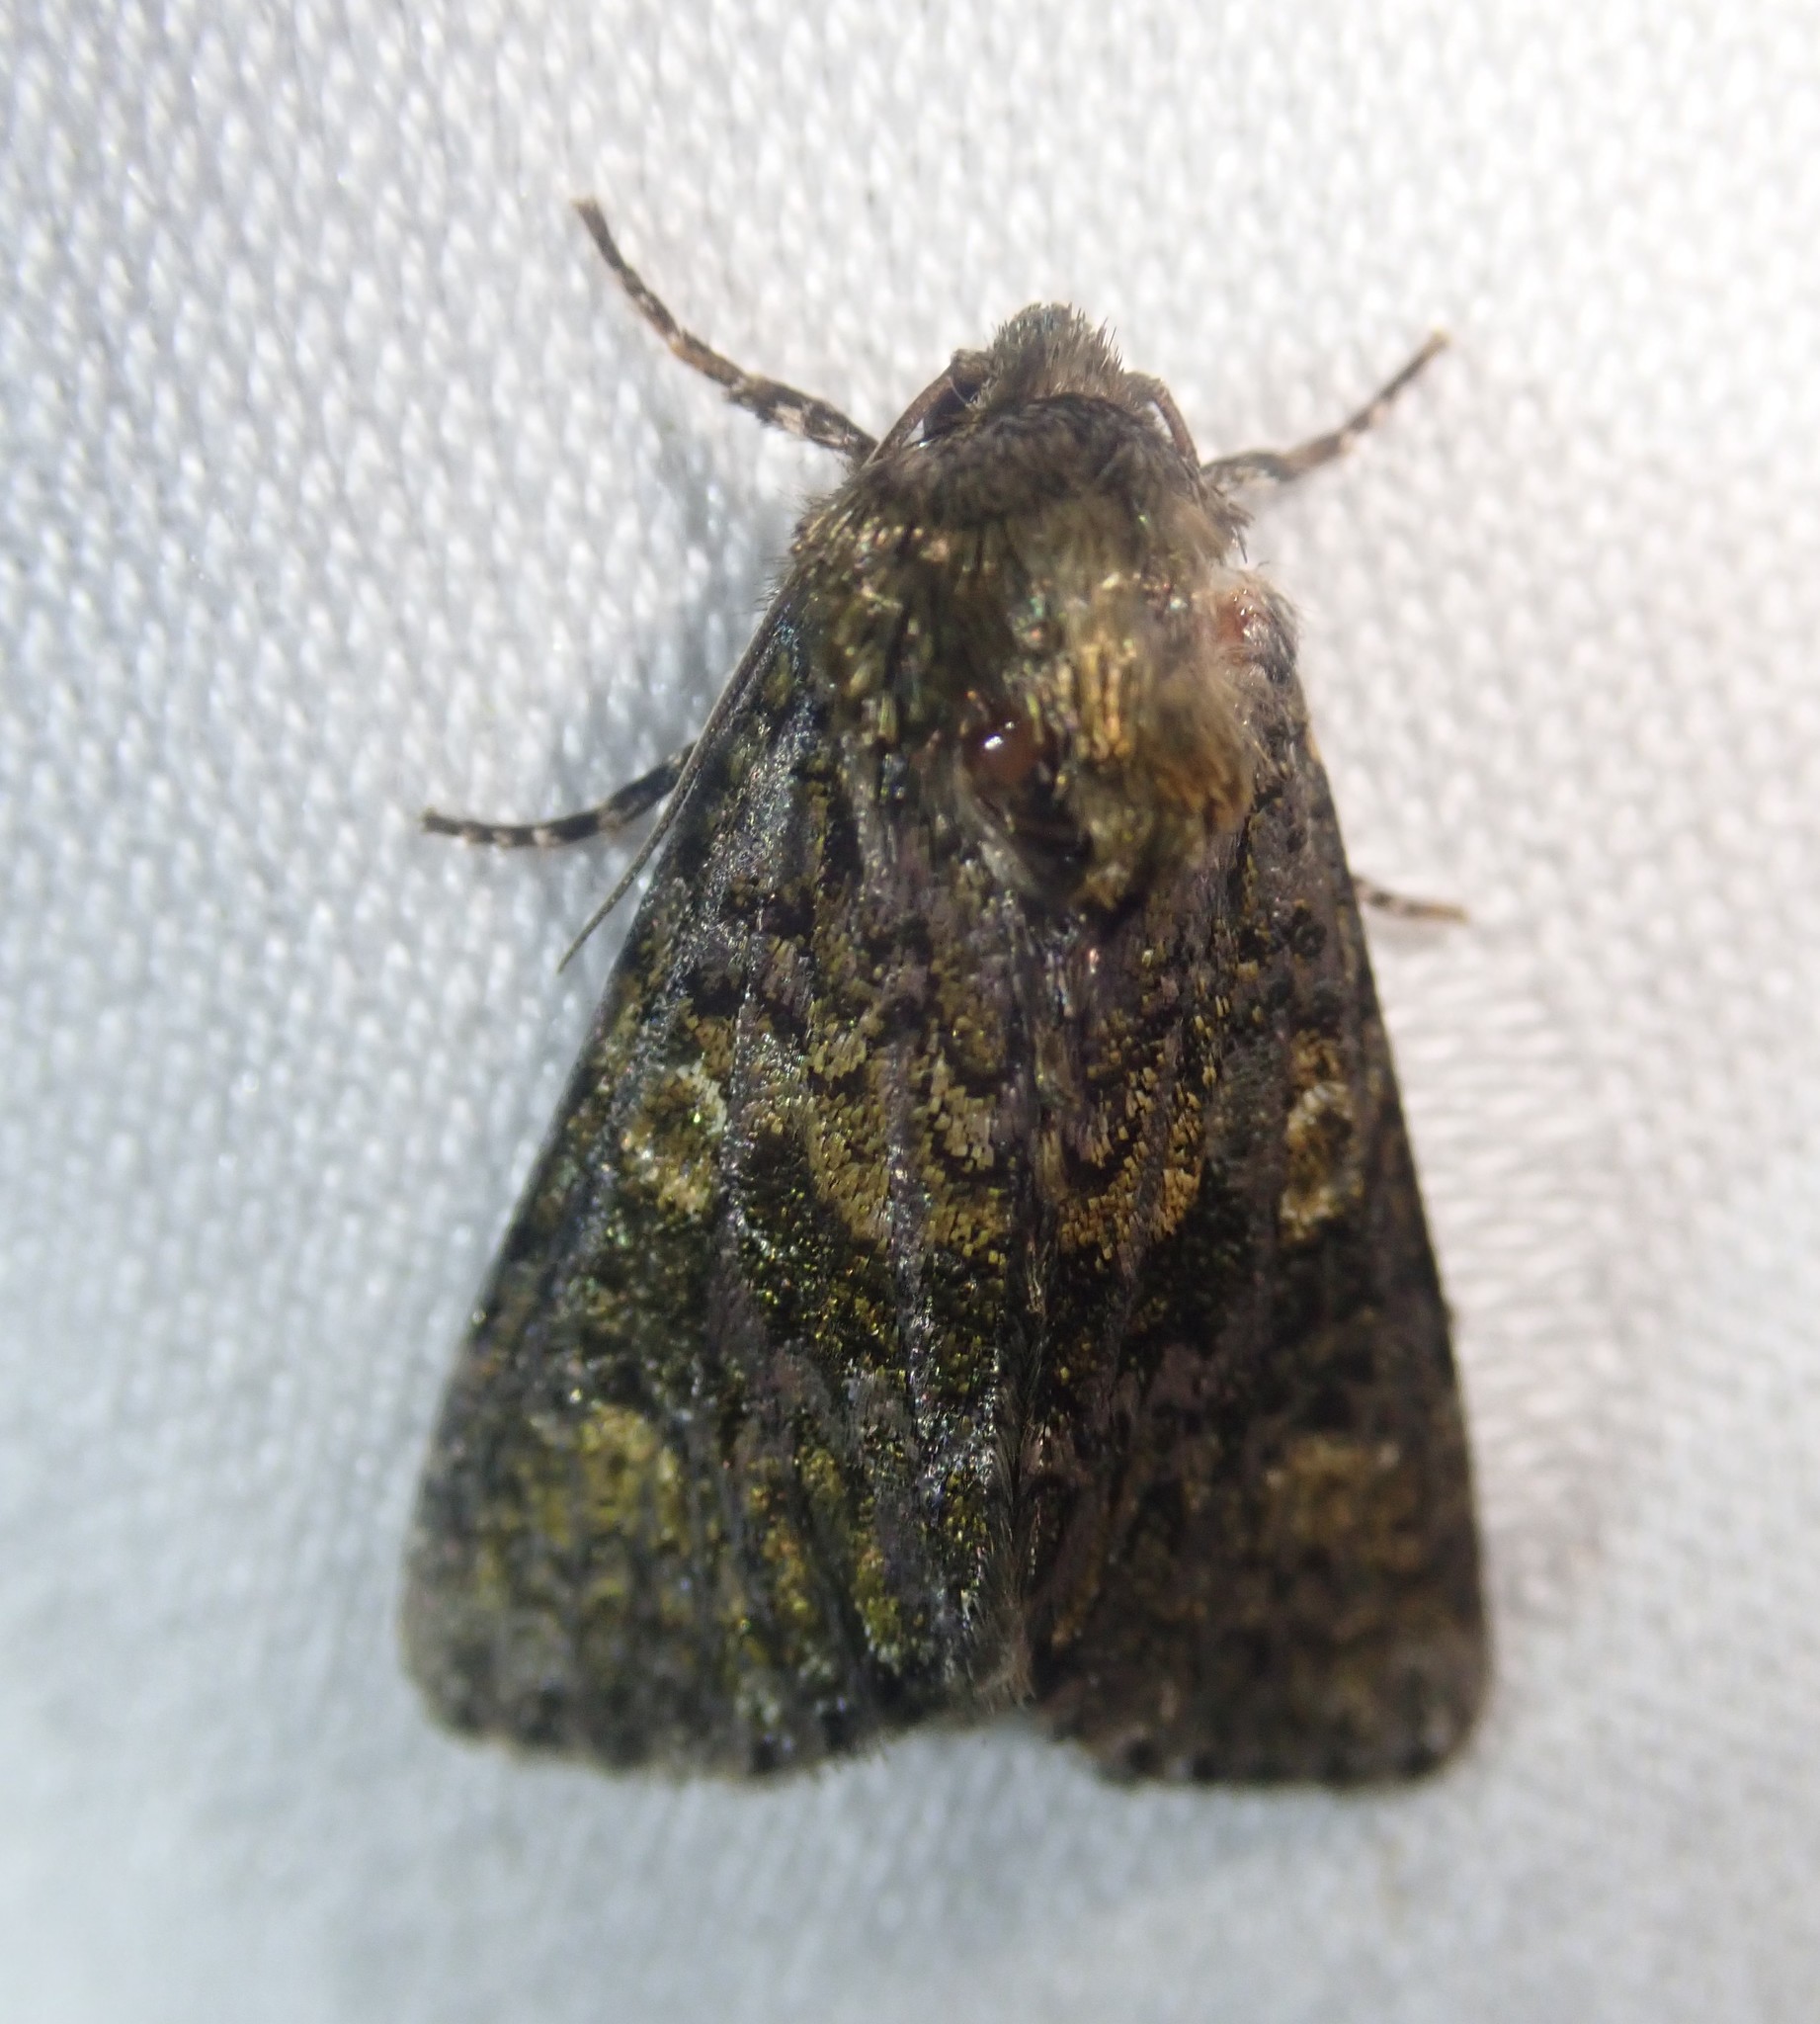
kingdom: Animalia
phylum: Arthropoda
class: Insecta
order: Lepidoptera
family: Noctuidae
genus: Craniophora
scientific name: Craniophora ligustri
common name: Coronet
